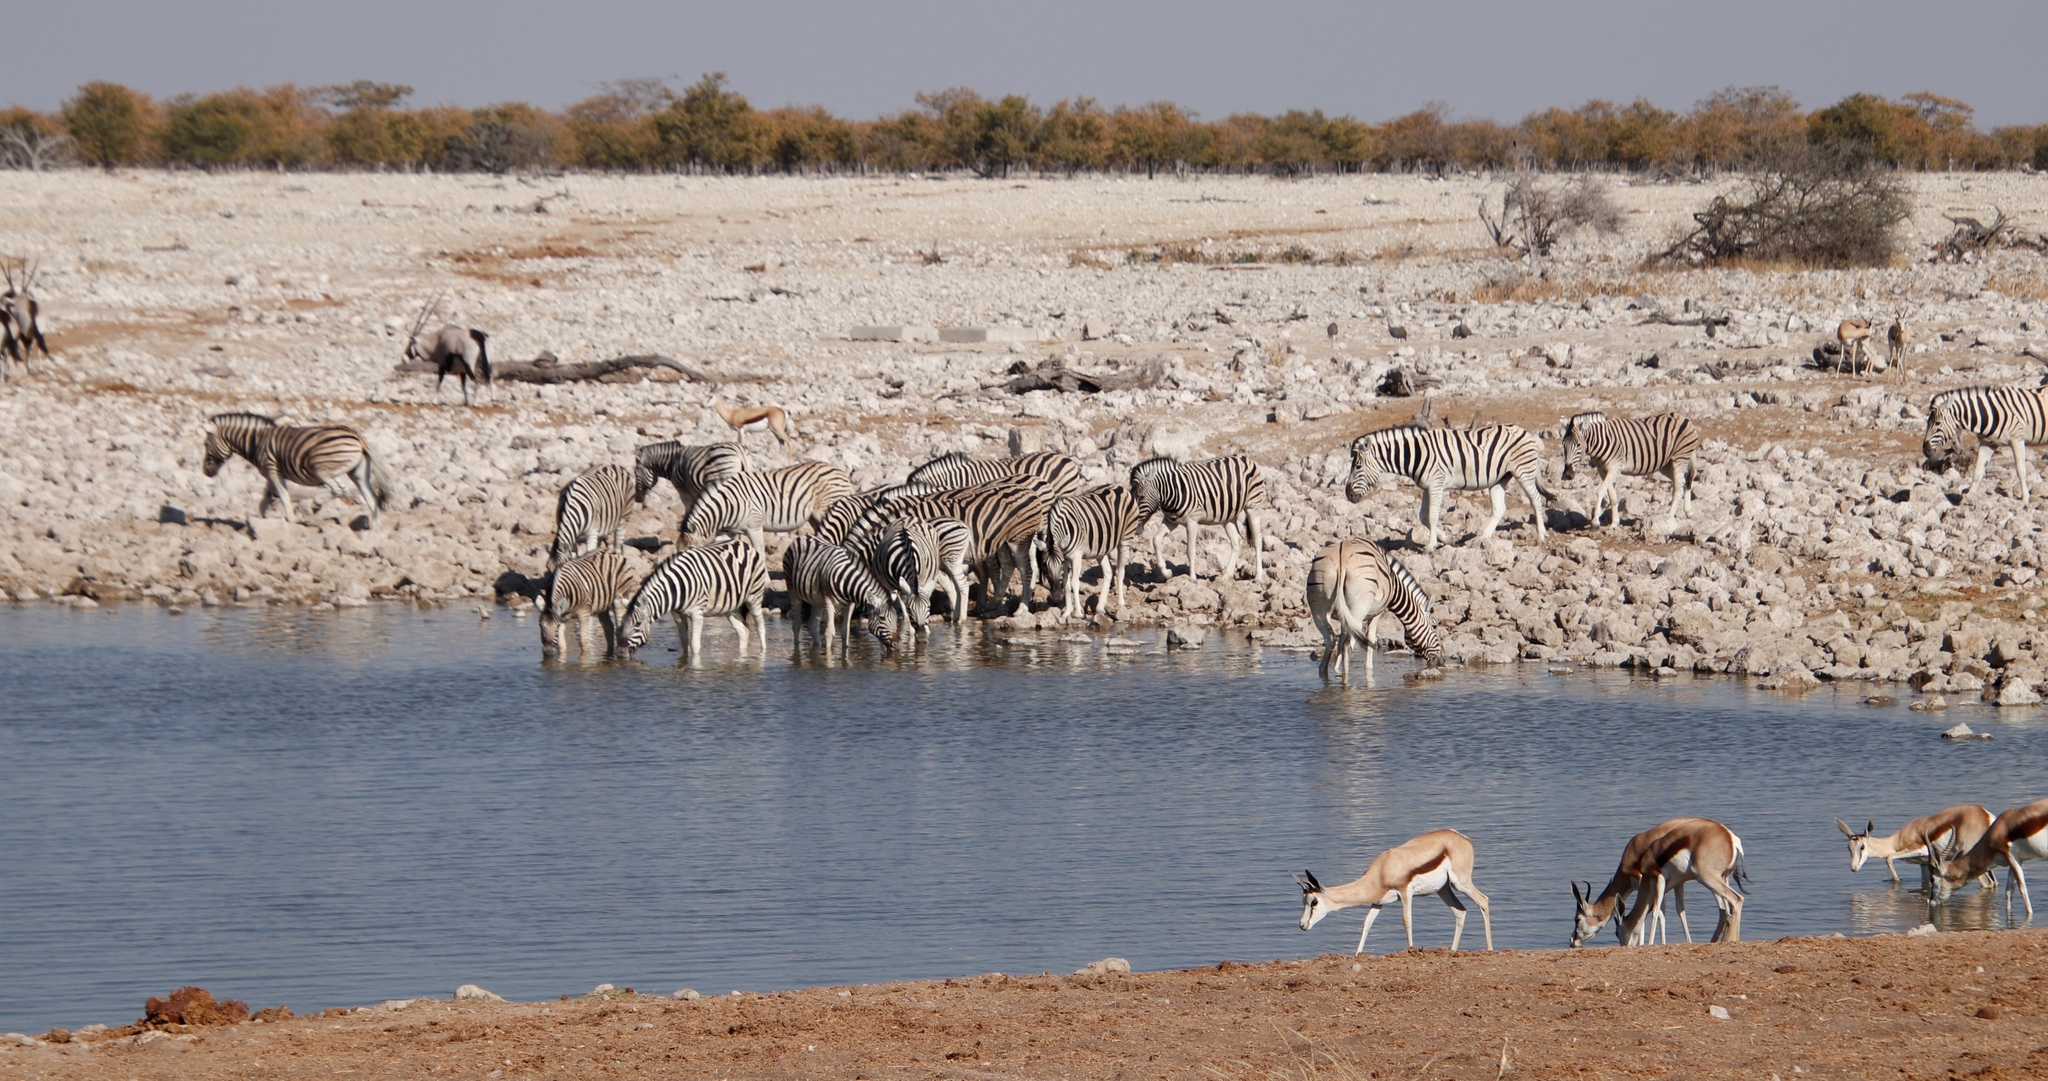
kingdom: Animalia
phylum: Chordata
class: Mammalia
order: Artiodactyla
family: Bovidae
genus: Antidorcas
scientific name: Antidorcas marsupialis
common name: Springbok
